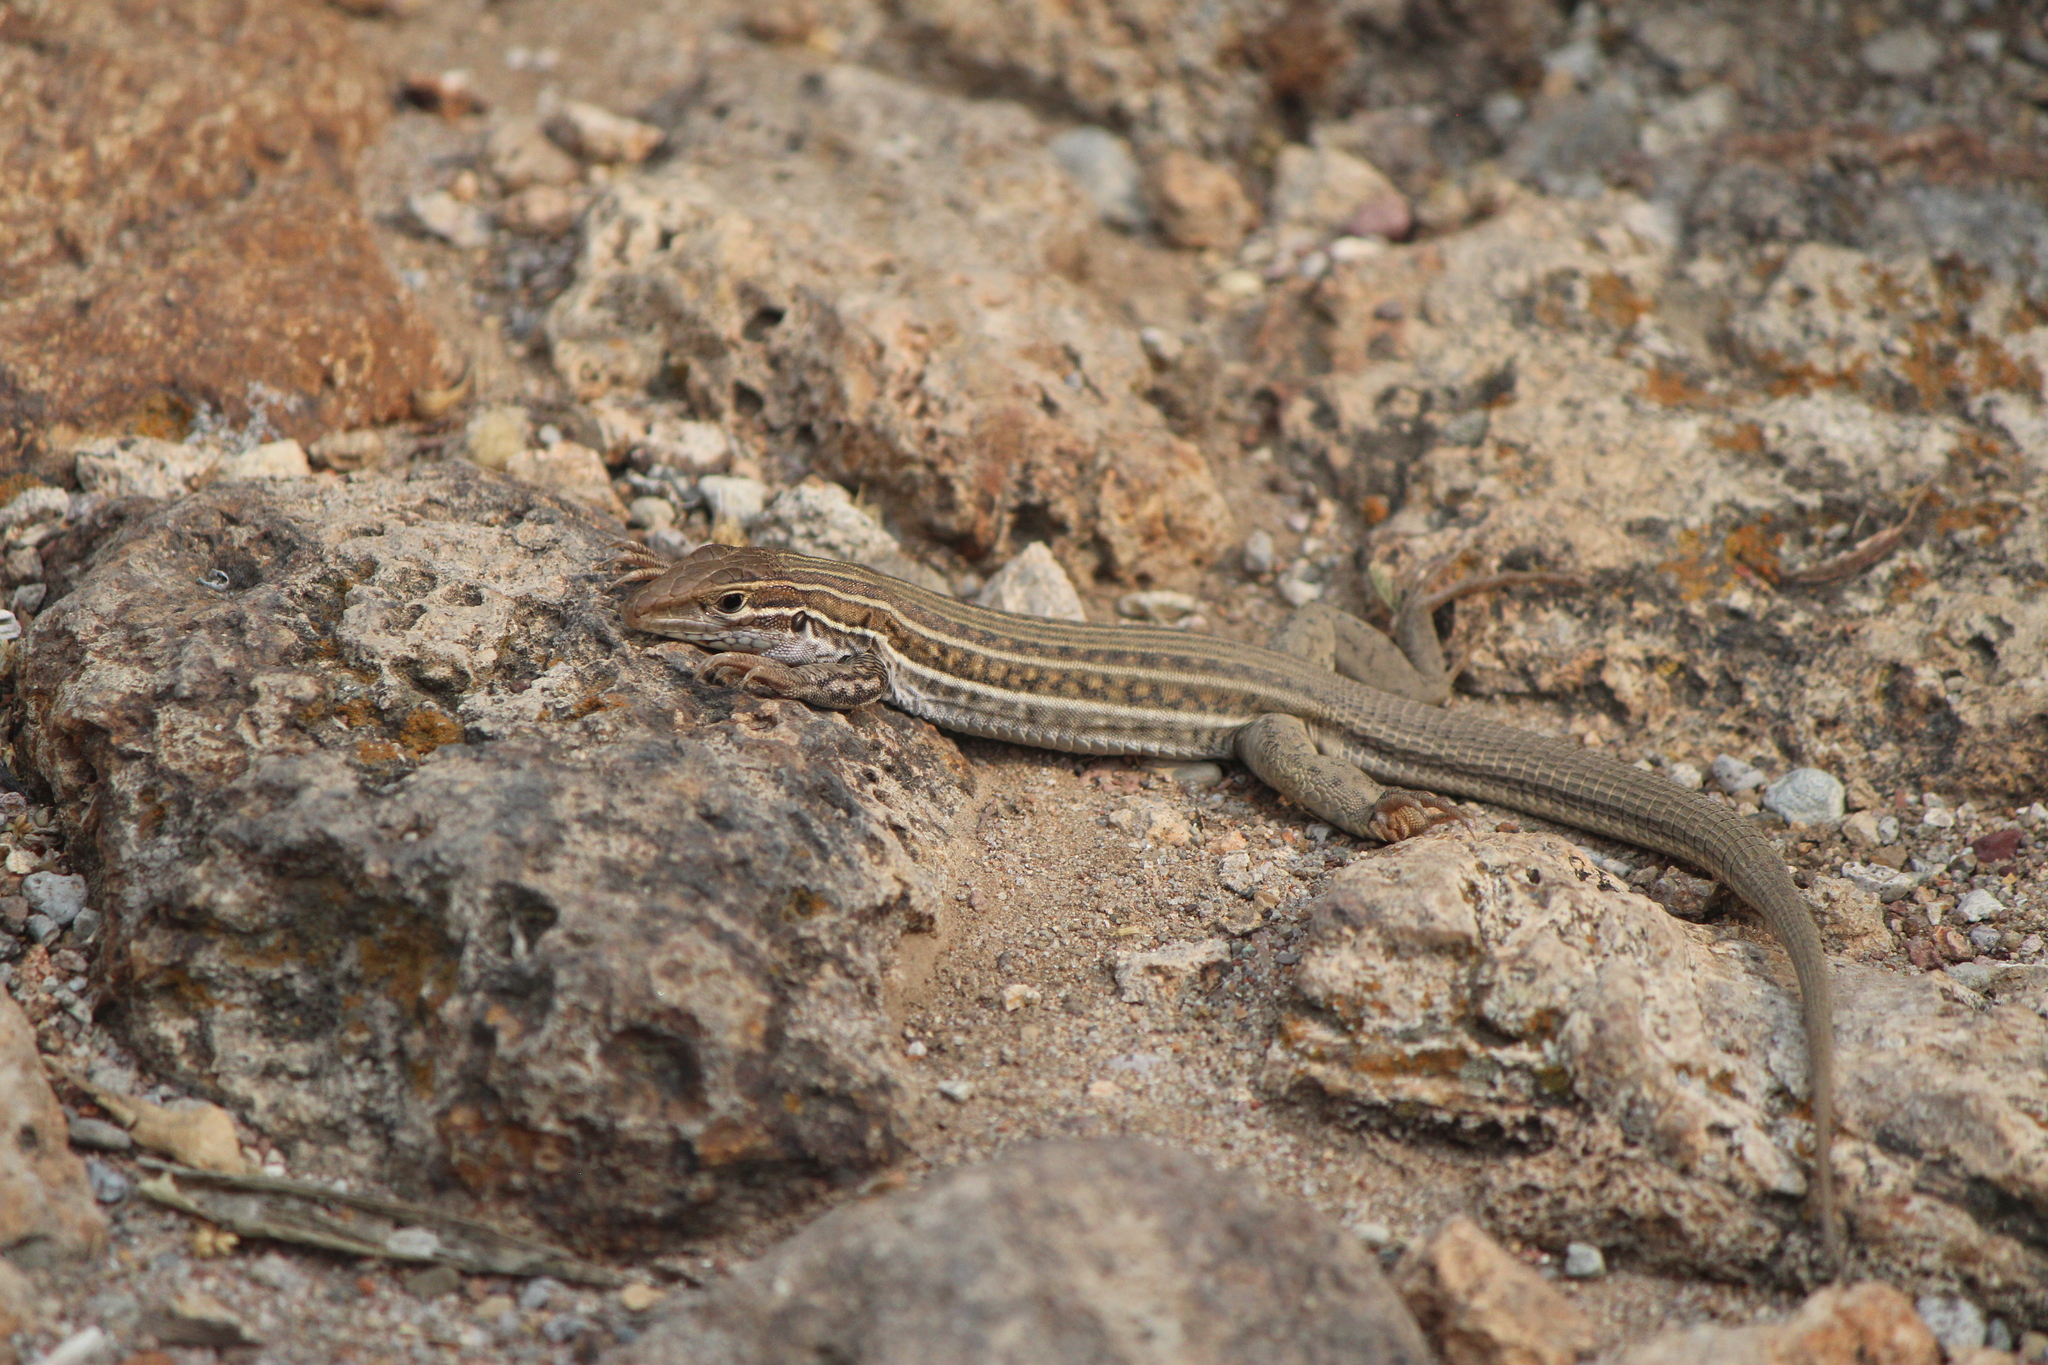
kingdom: Animalia
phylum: Chordata
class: Squamata
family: Teiidae
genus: Aspidoscelis
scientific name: Aspidoscelis gularis
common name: Eastern spotted whiptail
